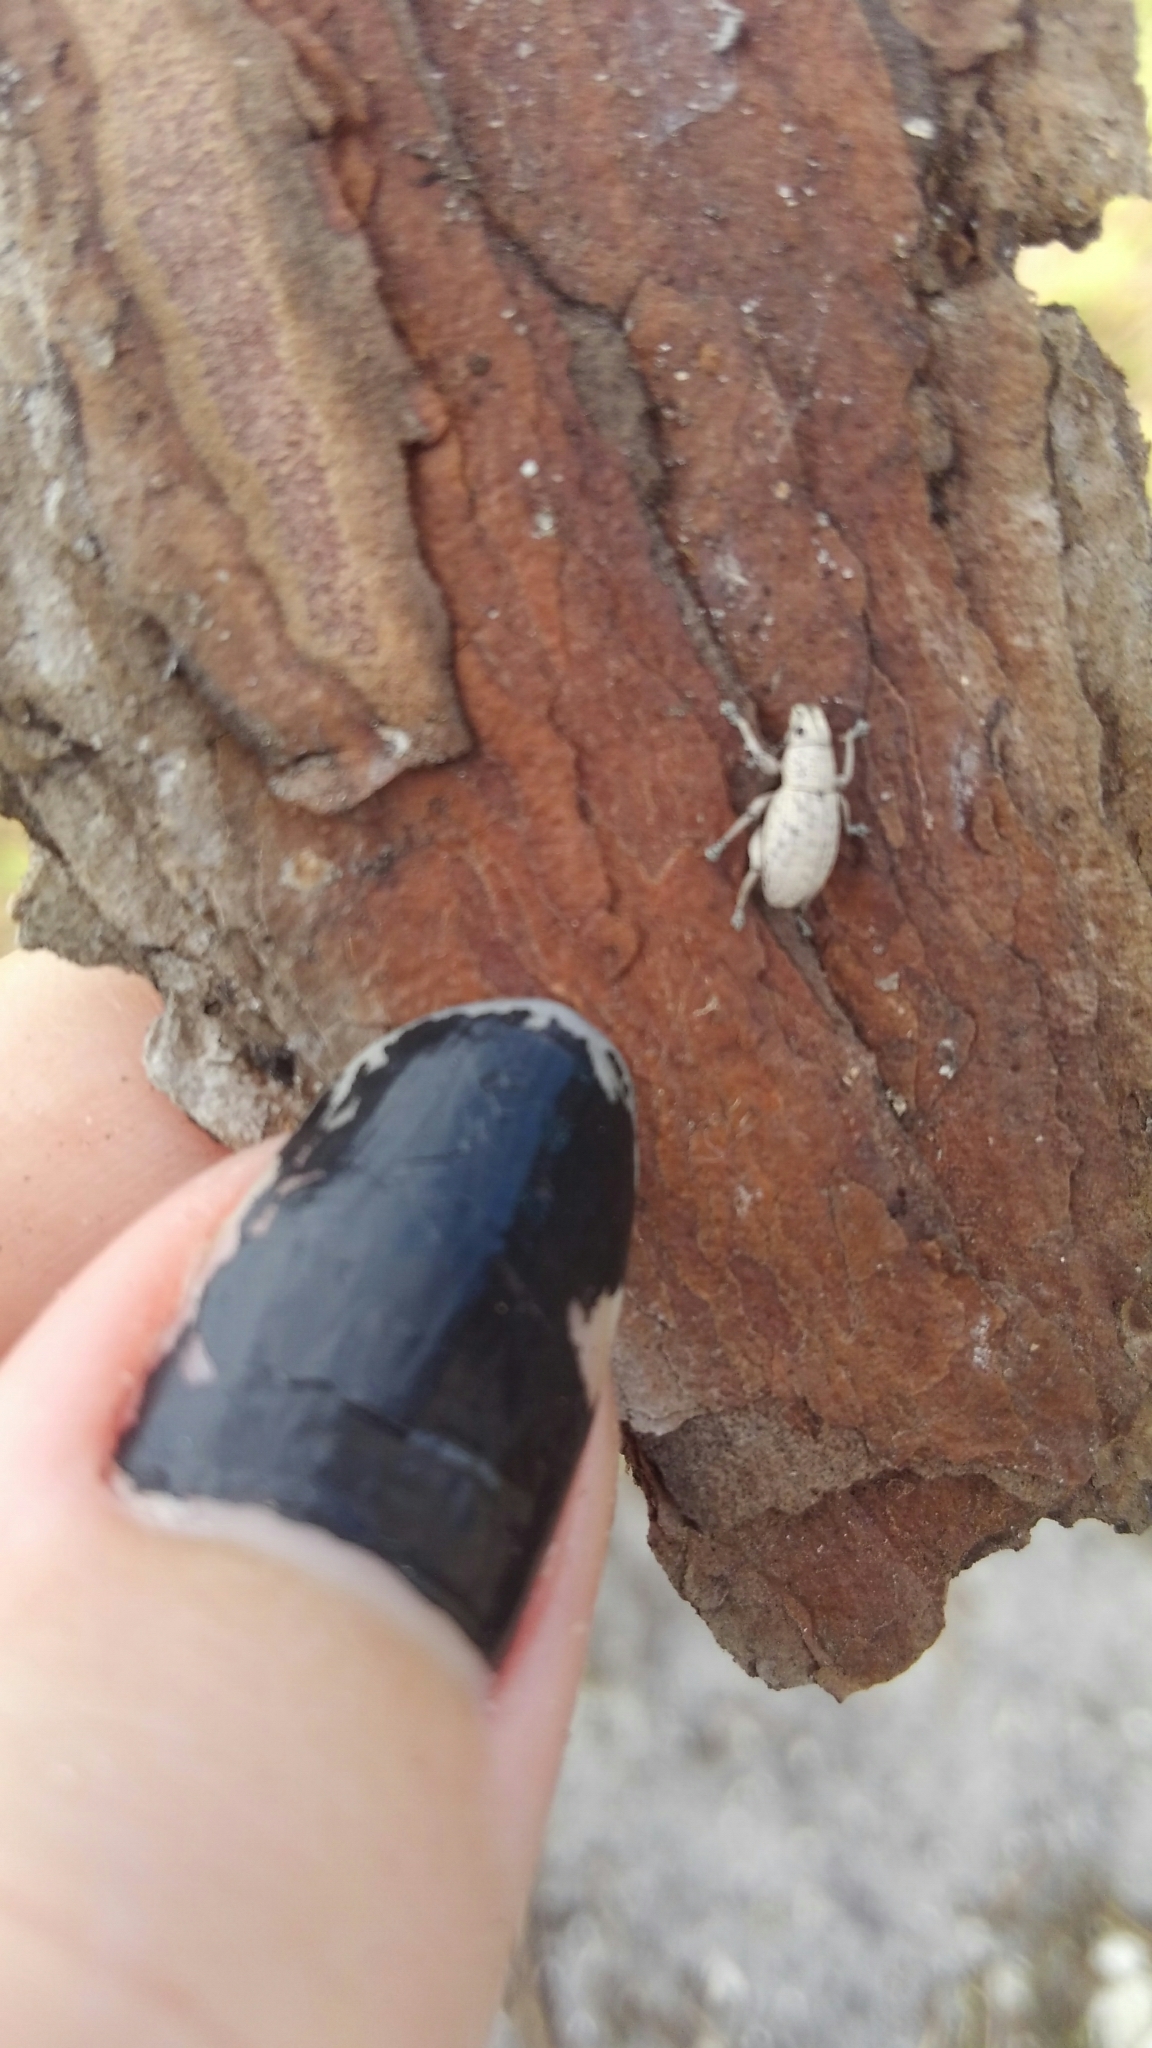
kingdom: Animalia
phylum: Arthropoda
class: Insecta
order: Coleoptera
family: Curculionidae
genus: Artipus
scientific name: Artipus floridanus
